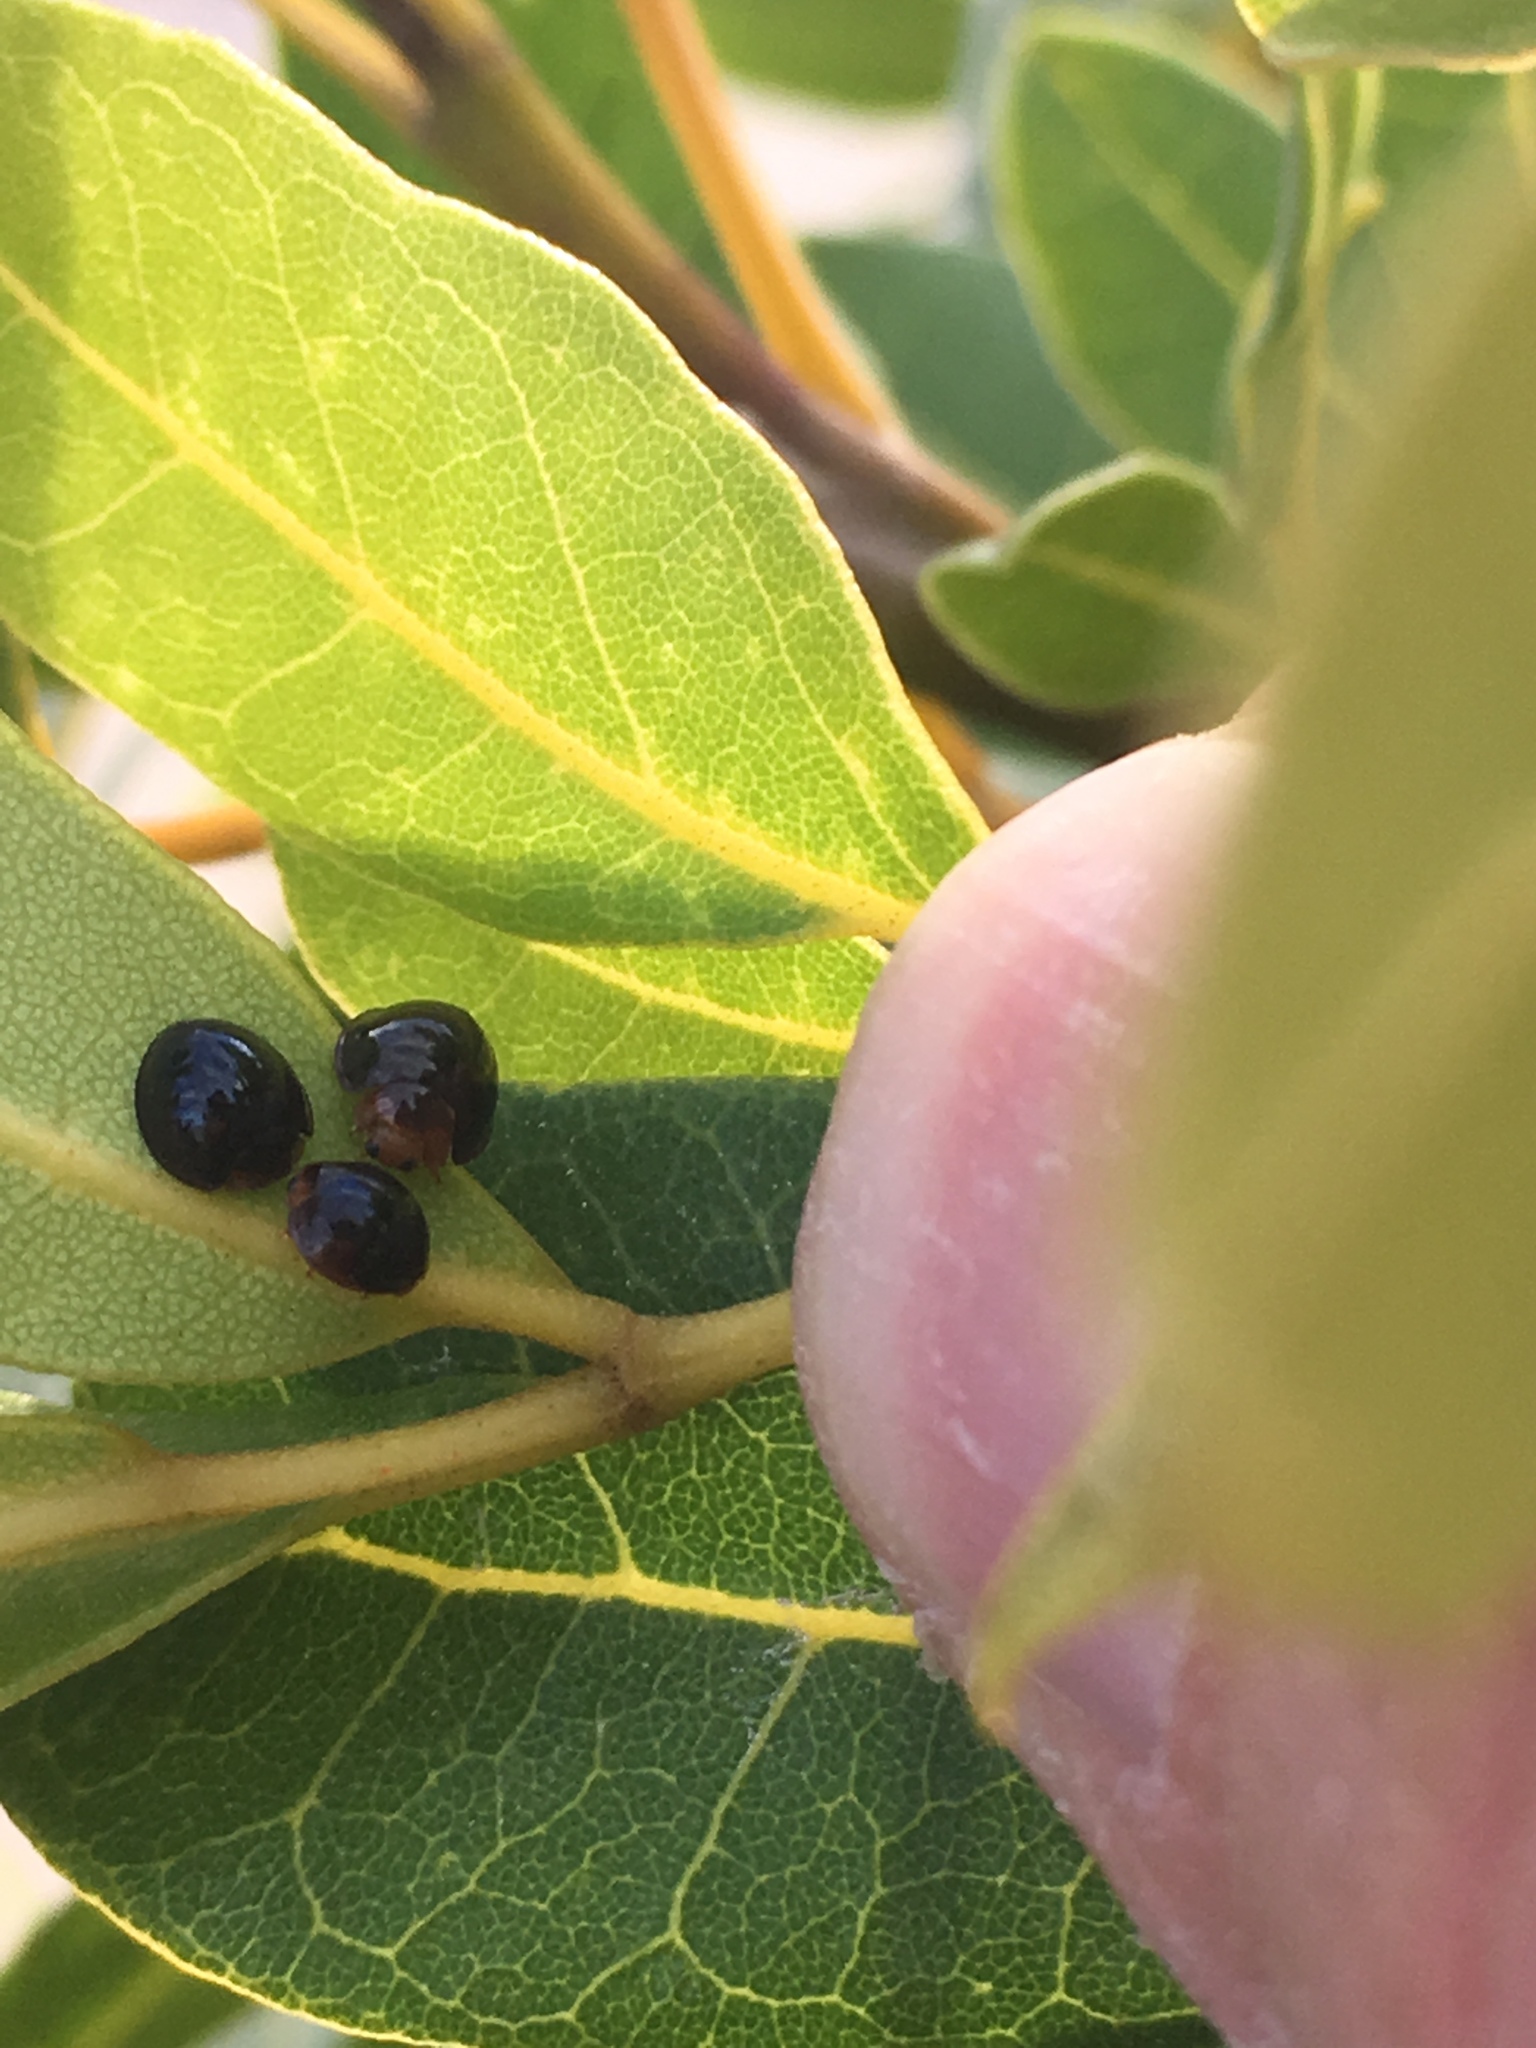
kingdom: Animalia
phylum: Arthropoda
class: Insecta
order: Coleoptera
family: Coccinellidae
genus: Chilocorus
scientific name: Chilocorus nigritus
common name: Ladybird beetle
